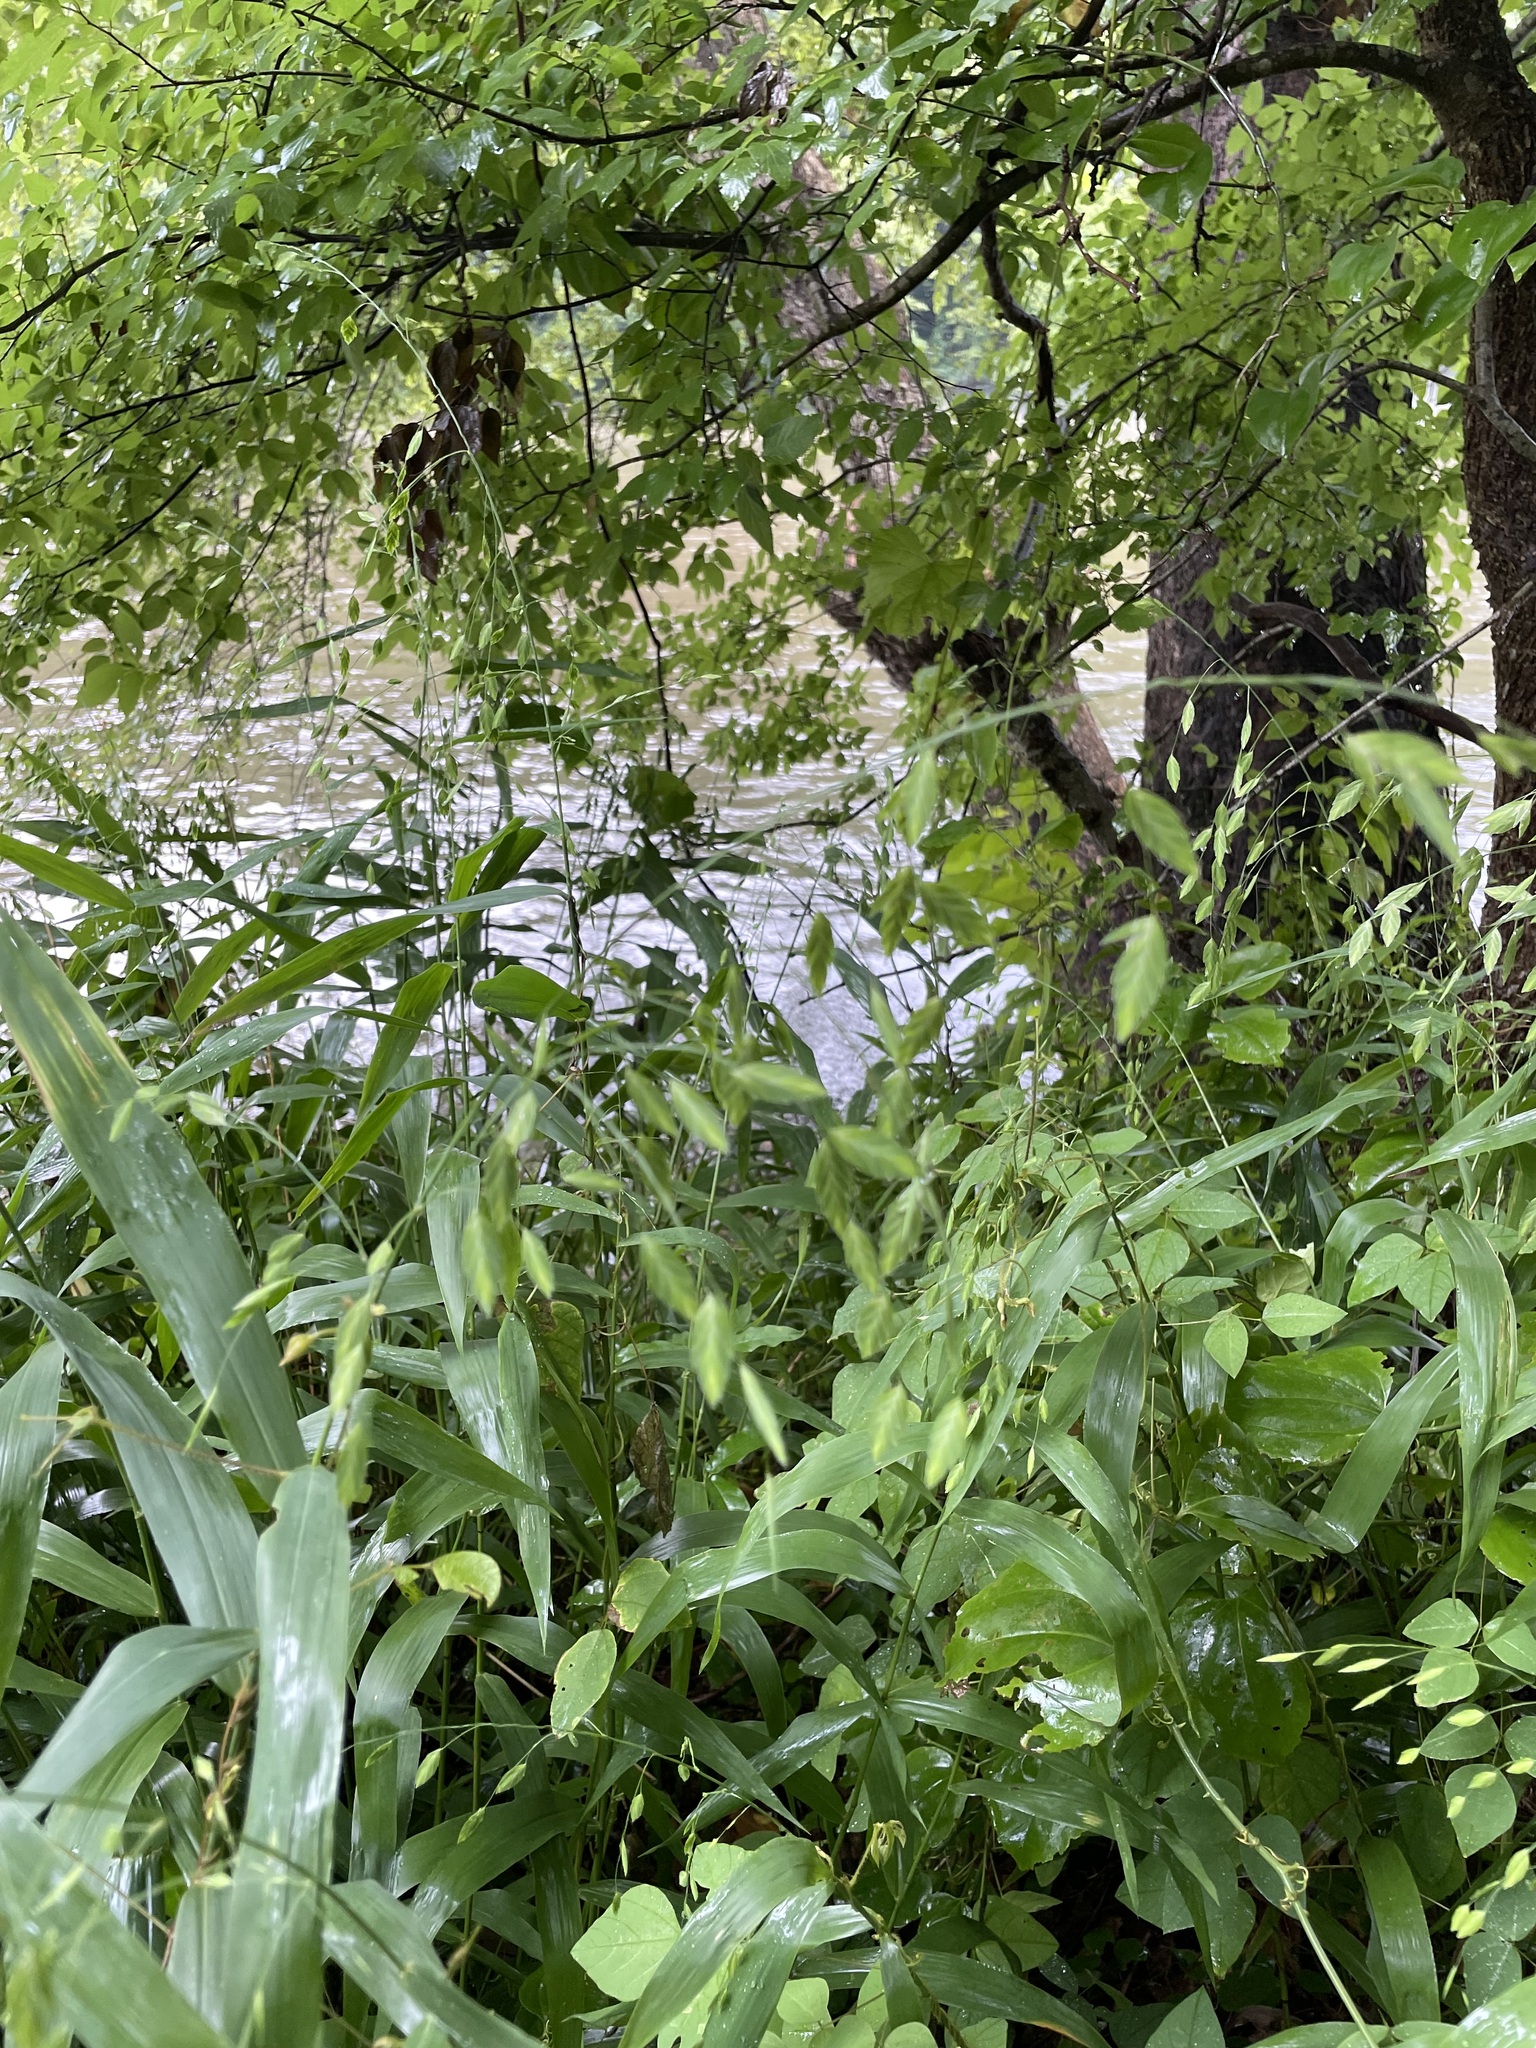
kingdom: Plantae
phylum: Tracheophyta
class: Liliopsida
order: Poales
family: Poaceae
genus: Chasmanthium
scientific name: Chasmanthium latifolium
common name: Broad-leaved chasmanthium
